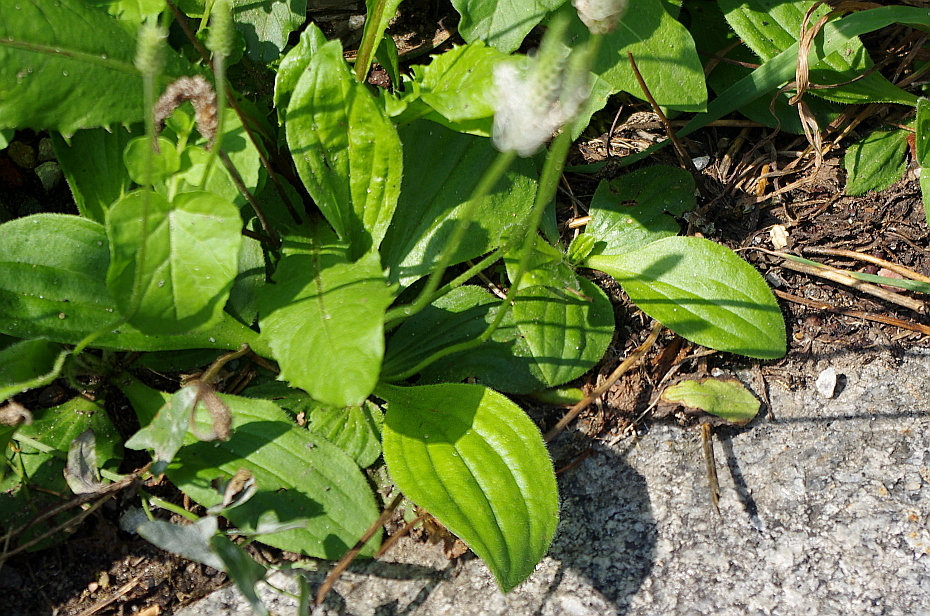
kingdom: Plantae
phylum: Tracheophyta
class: Magnoliopsida
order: Lamiales
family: Plantaginaceae
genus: Plantago
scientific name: Plantago media
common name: Hoary plantain
